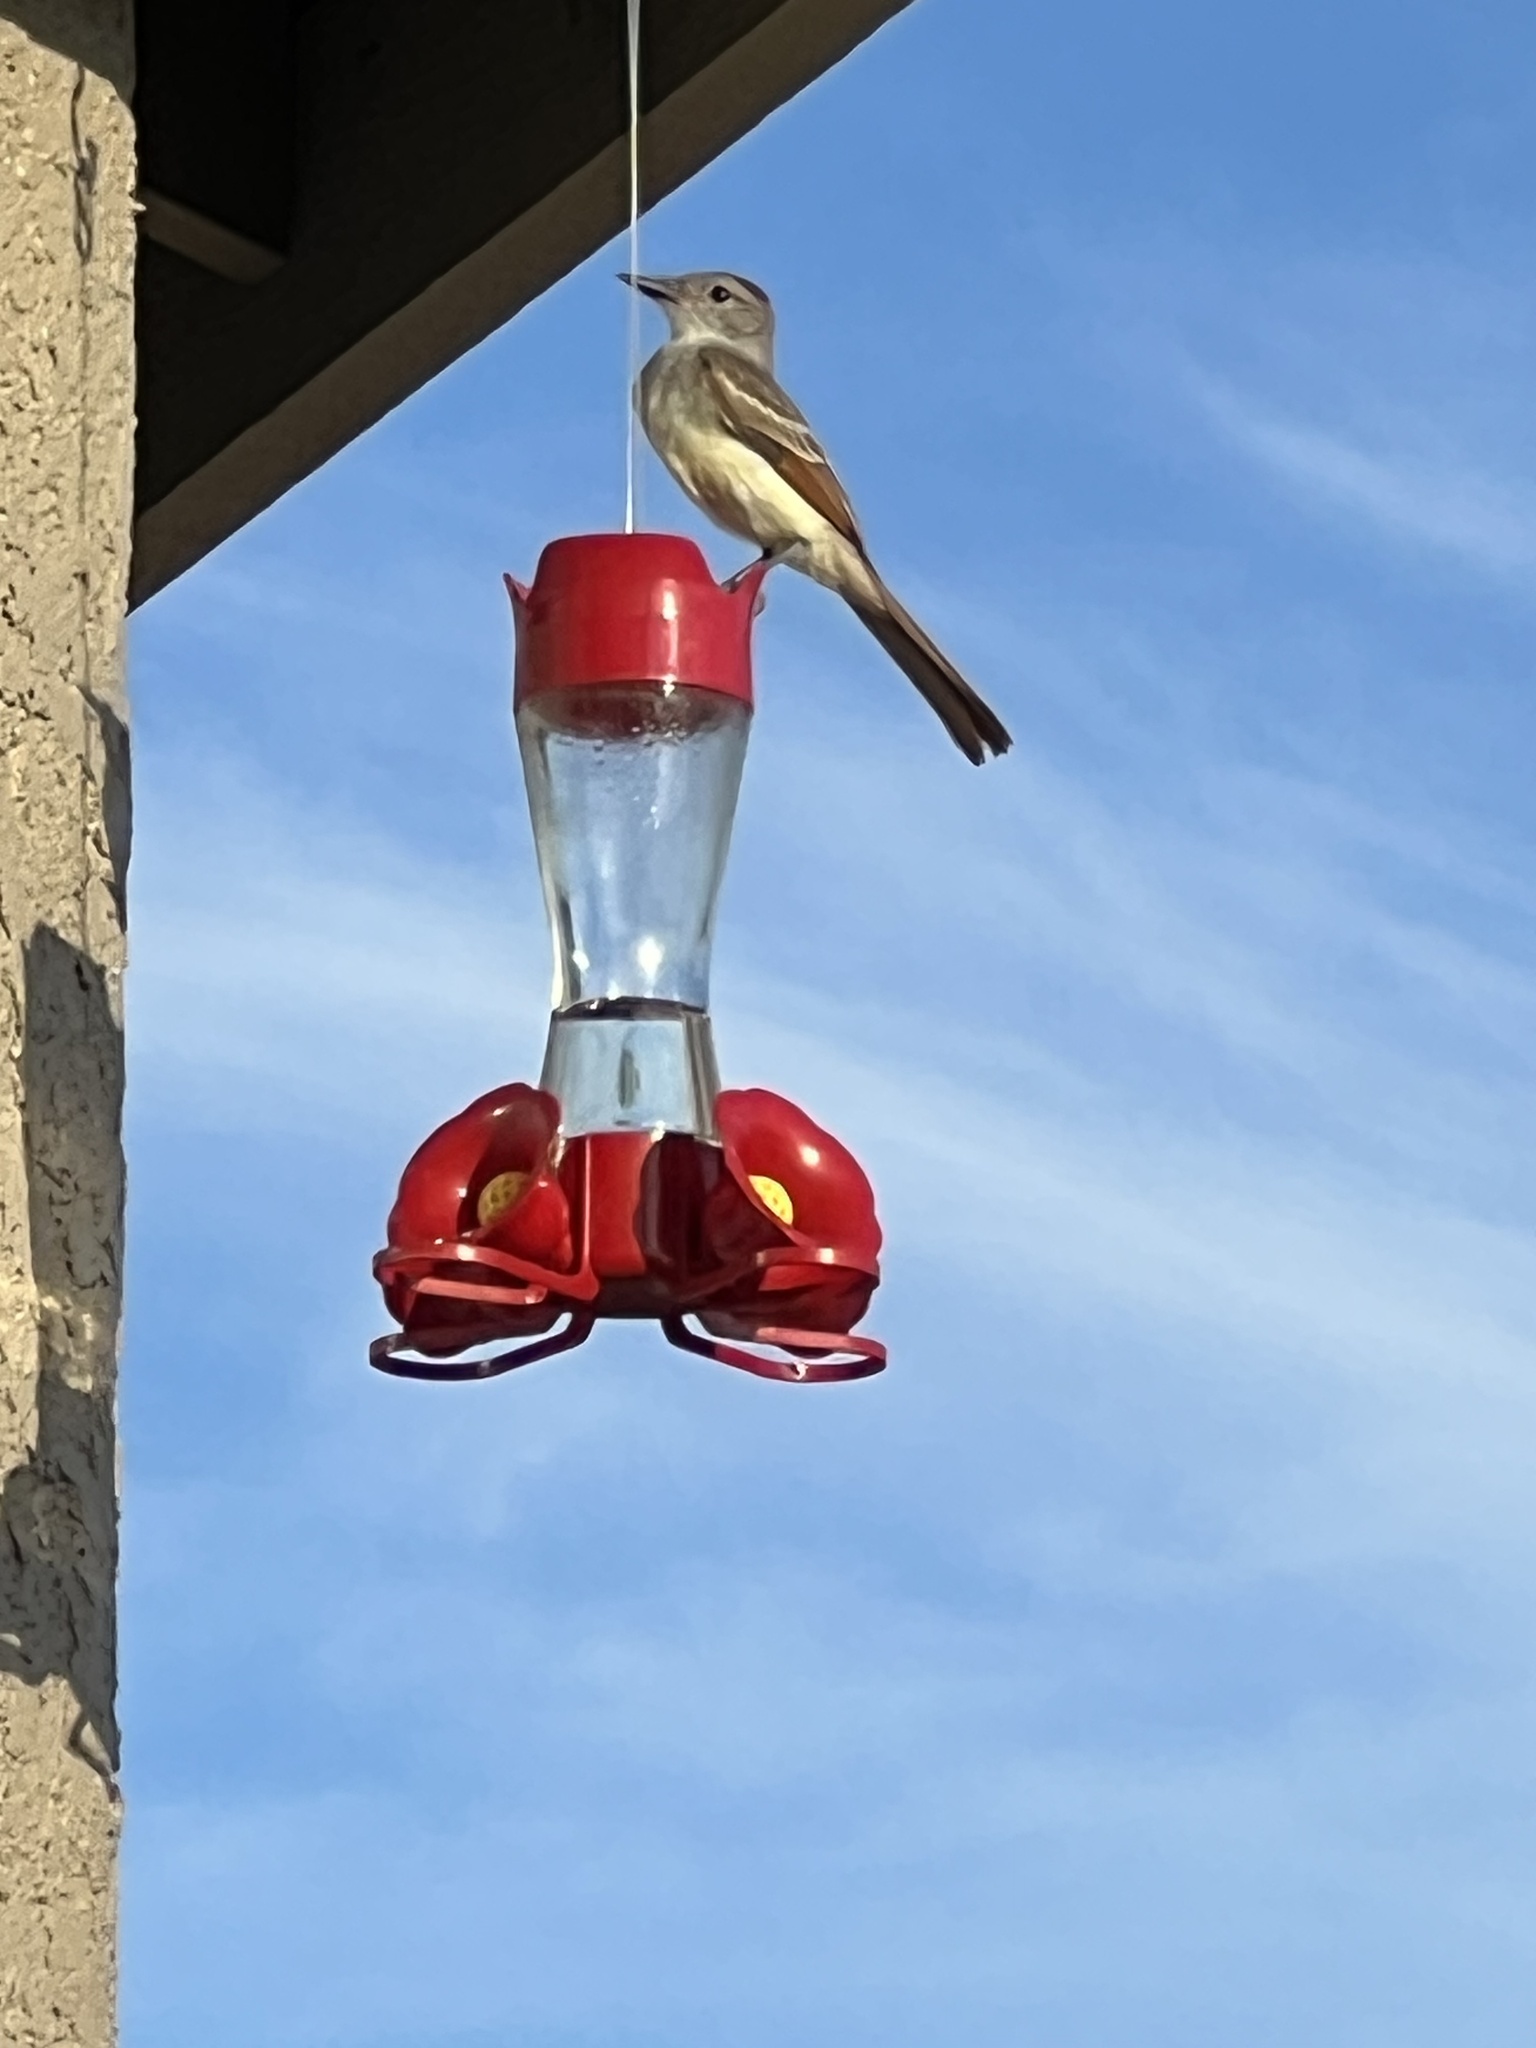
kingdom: Animalia
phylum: Chordata
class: Aves
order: Passeriformes
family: Tyrannidae
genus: Myiarchus
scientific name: Myiarchus cinerascens
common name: Ash-throated flycatcher
